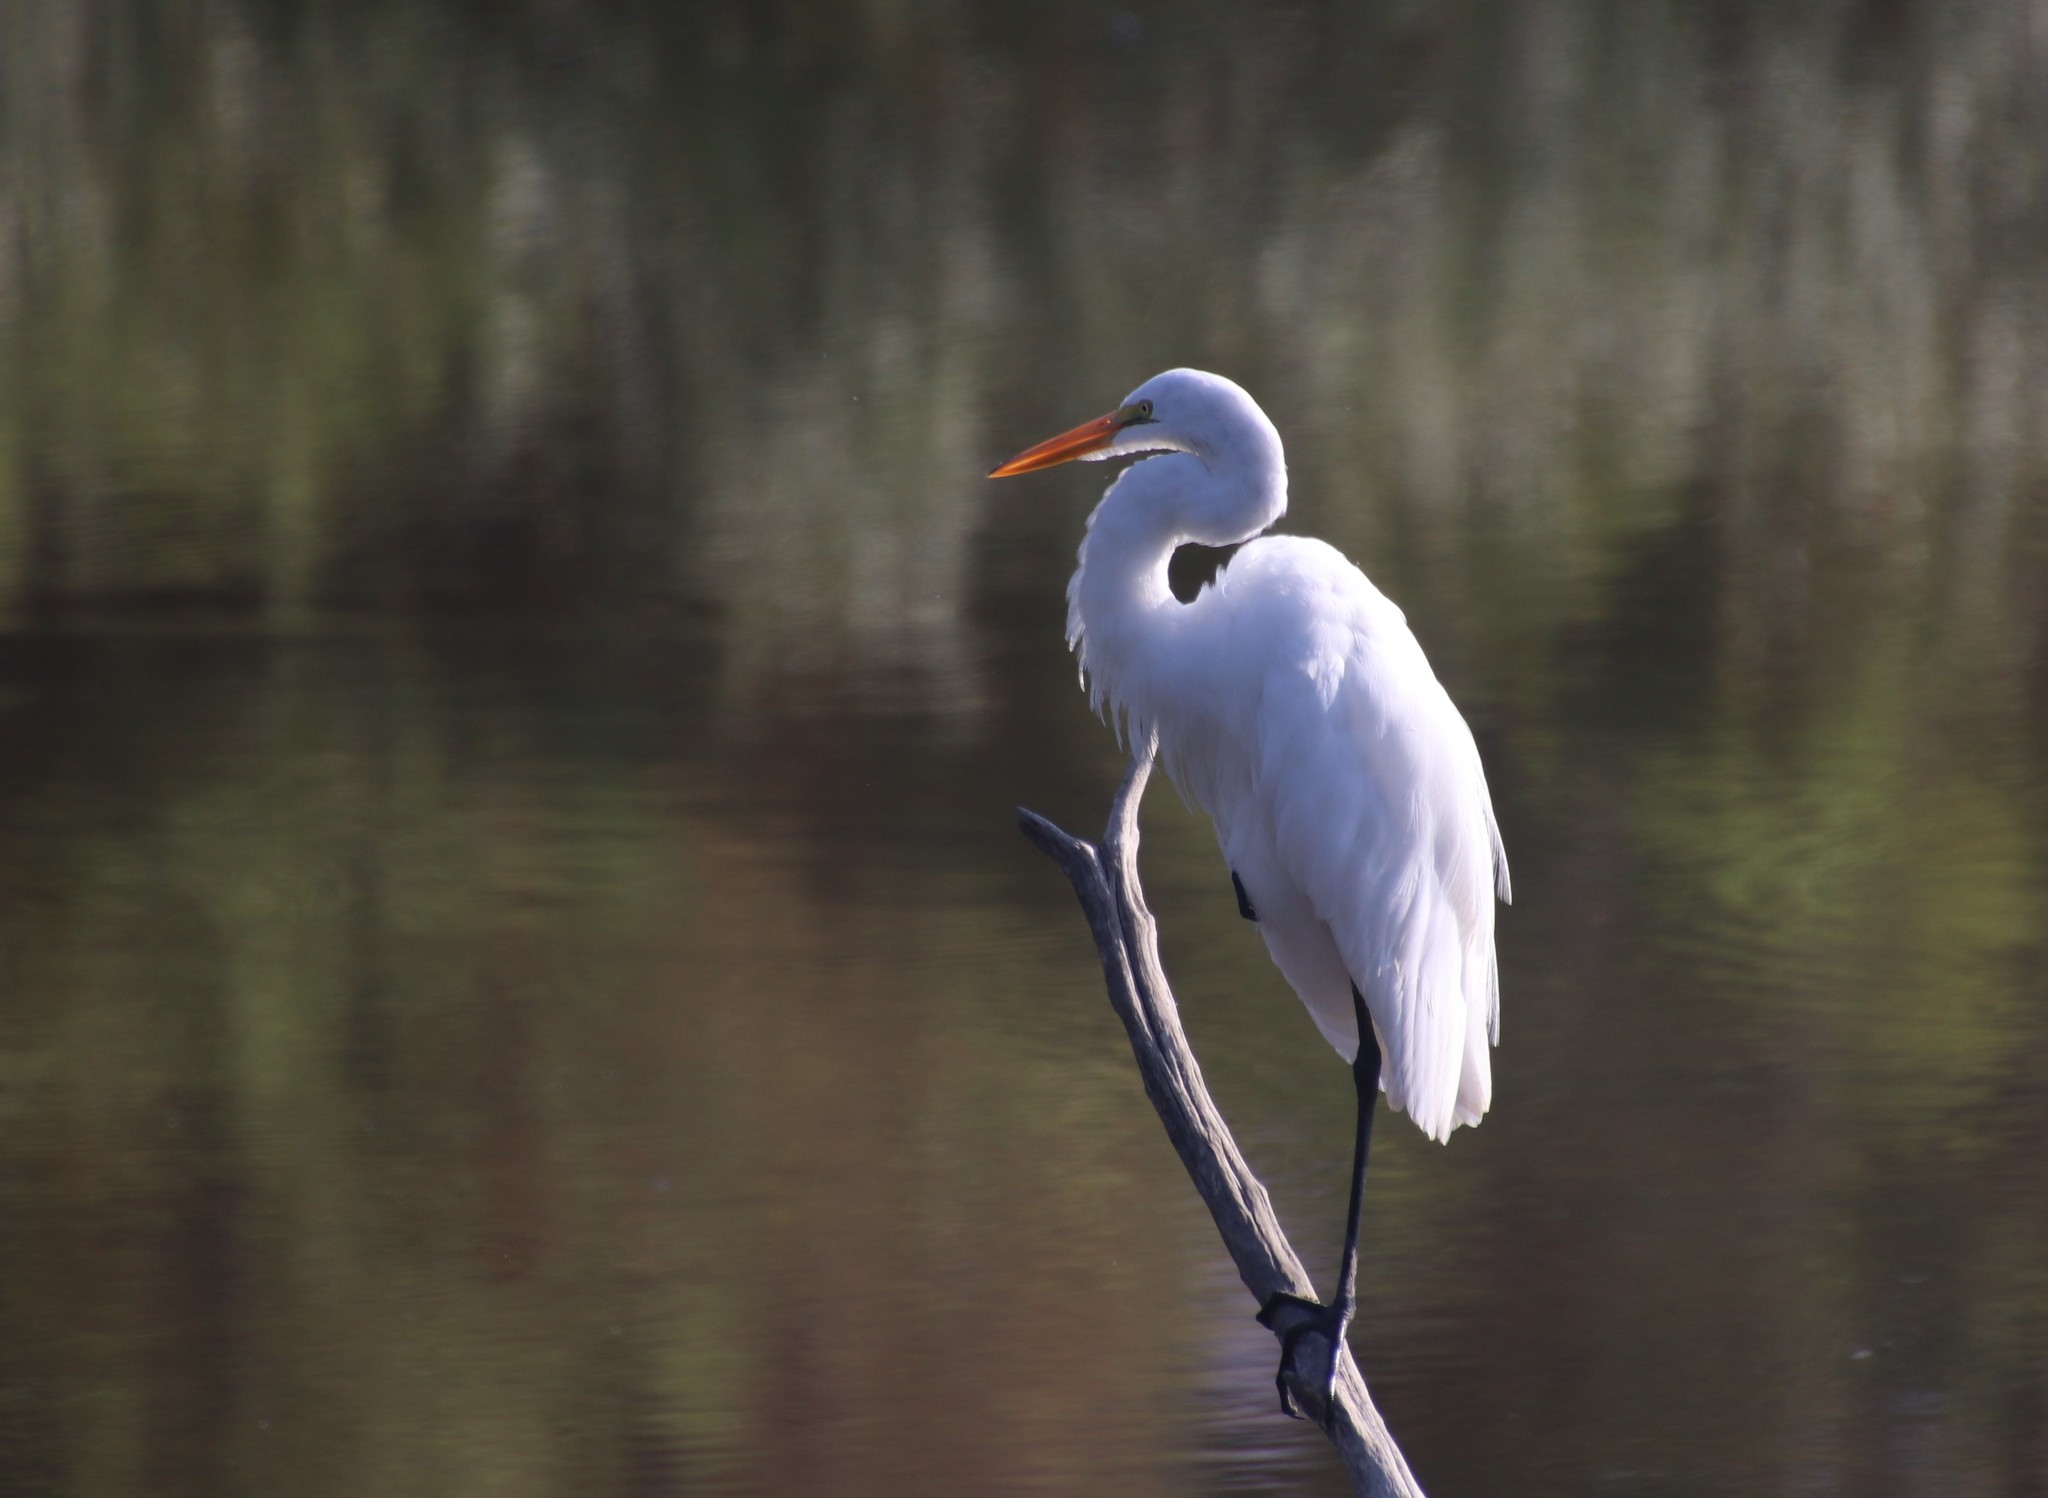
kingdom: Animalia
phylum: Chordata
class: Aves
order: Pelecaniformes
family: Ardeidae
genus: Ardea
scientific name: Ardea alba
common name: Great egret
